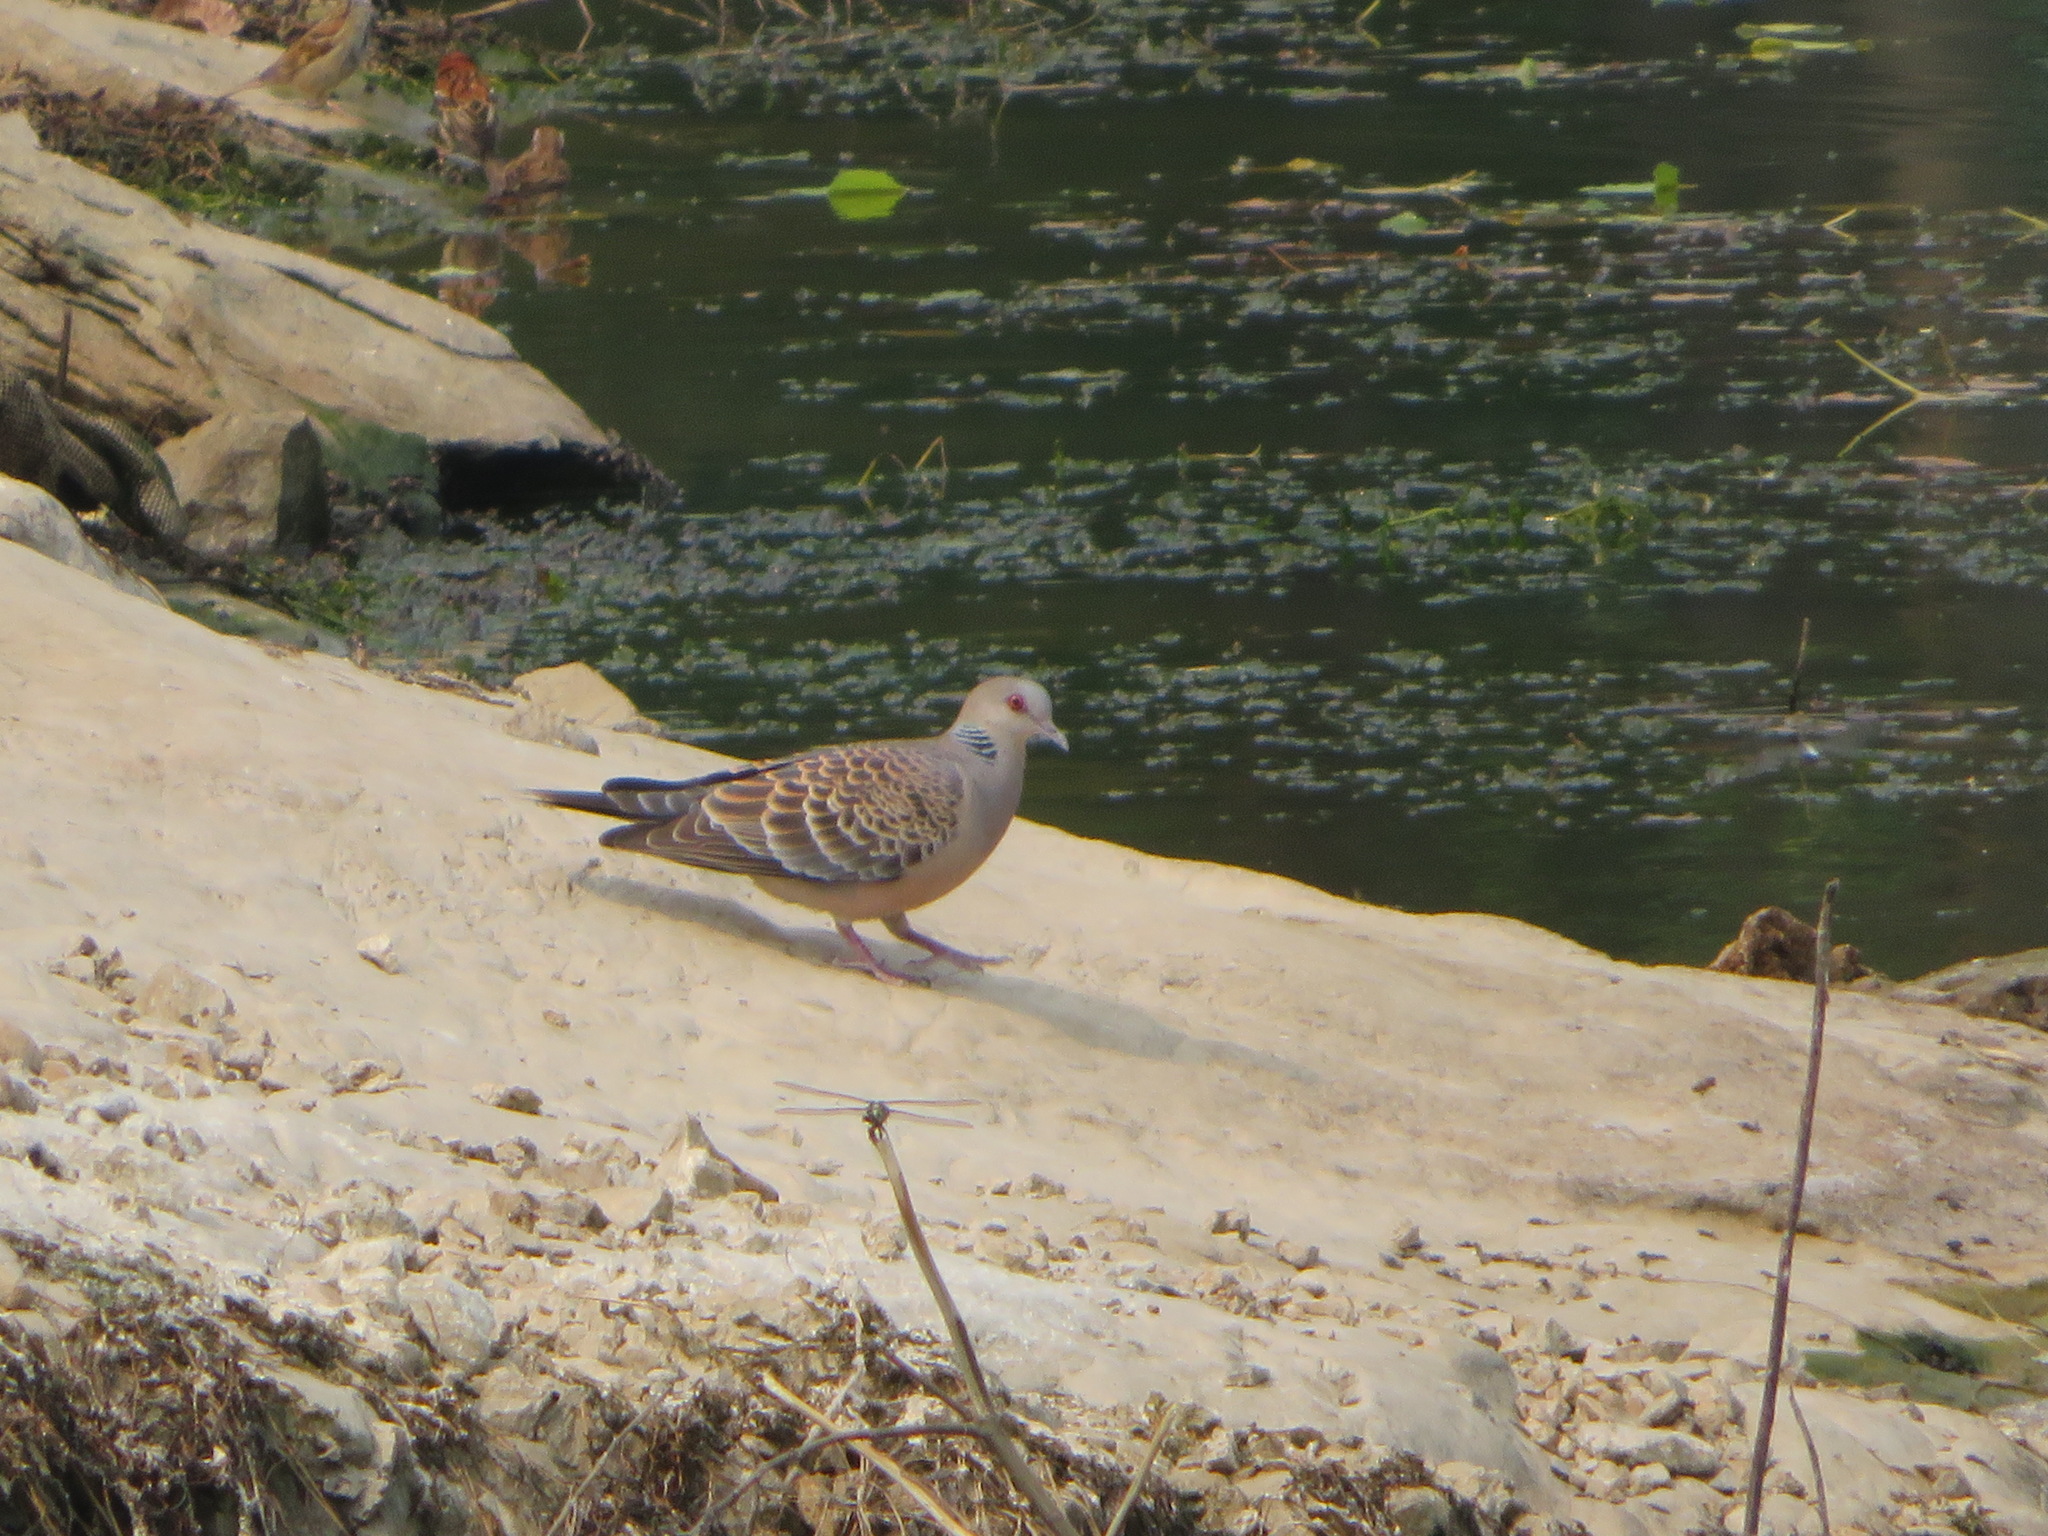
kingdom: Animalia
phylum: Chordata
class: Aves
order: Columbiformes
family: Columbidae
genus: Streptopelia
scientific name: Streptopelia orientalis
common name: Oriental turtle dove
